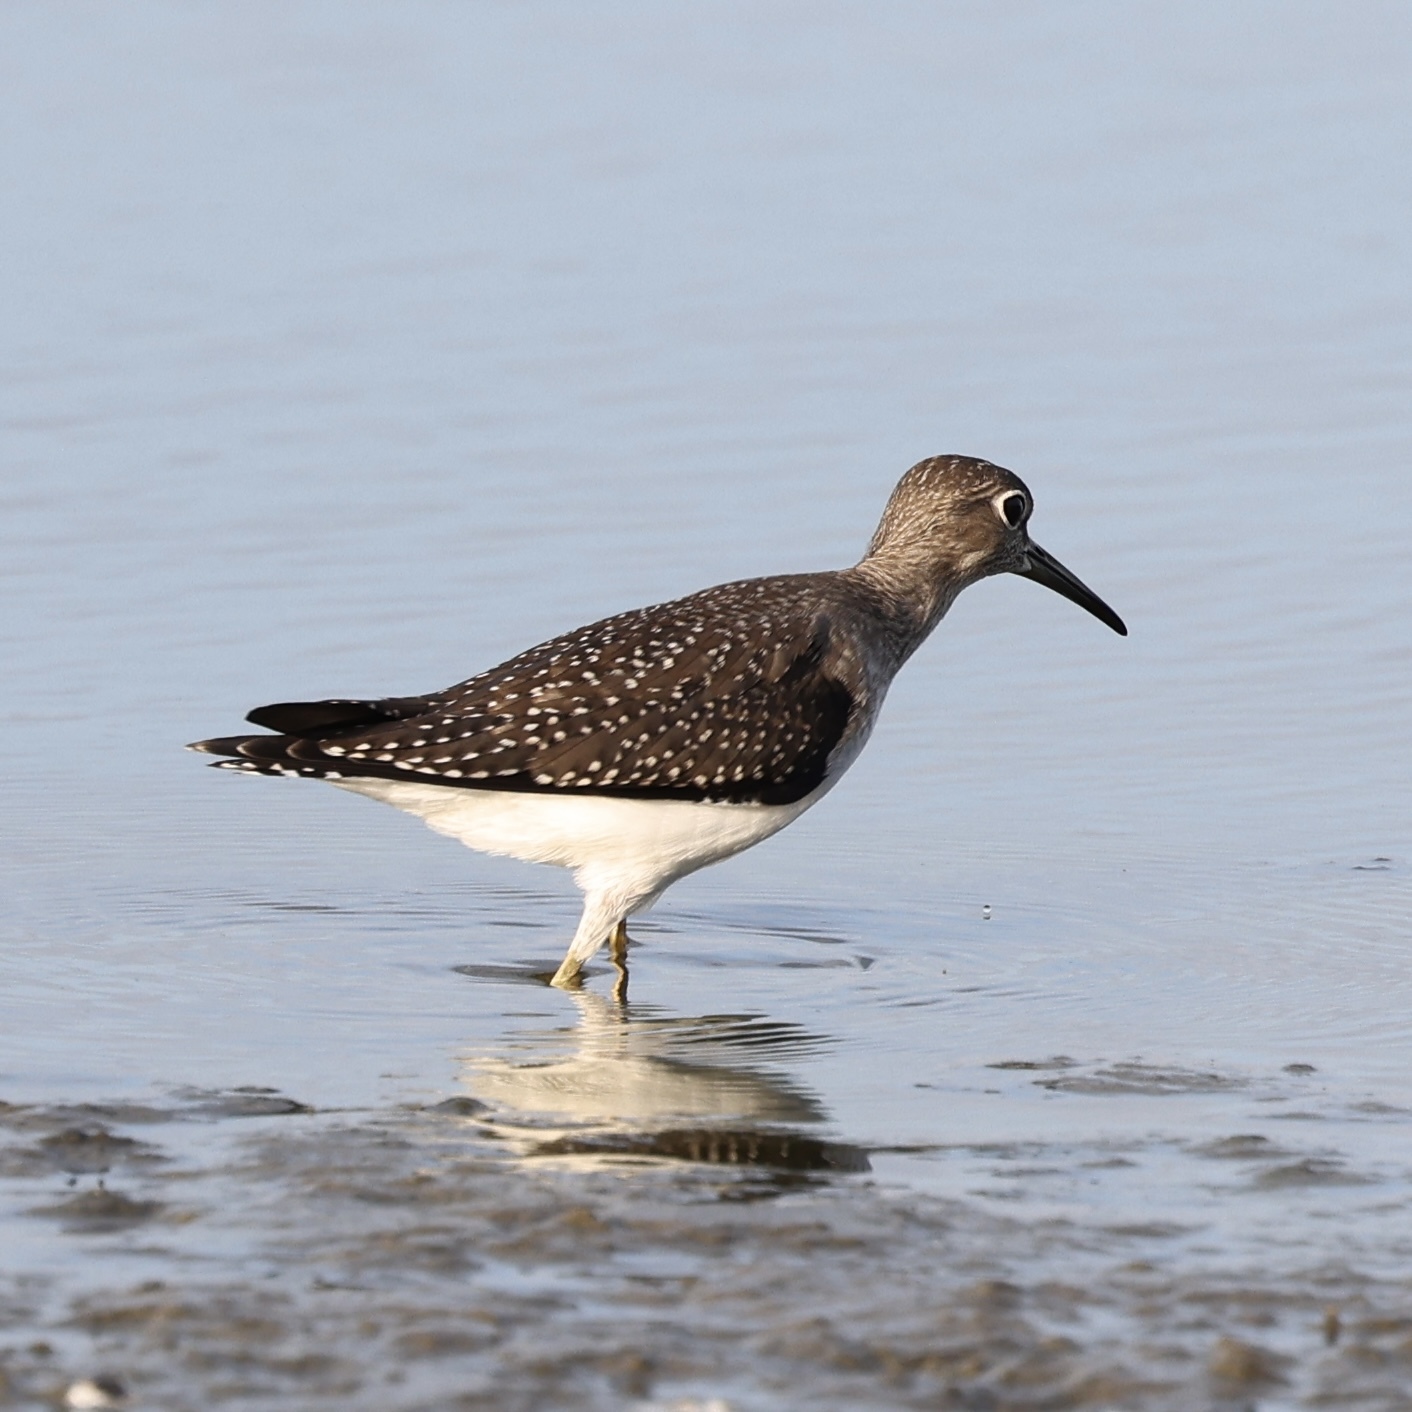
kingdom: Animalia
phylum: Chordata
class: Aves
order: Charadriiformes
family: Scolopacidae
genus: Tringa
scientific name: Tringa solitaria
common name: Solitary sandpiper
